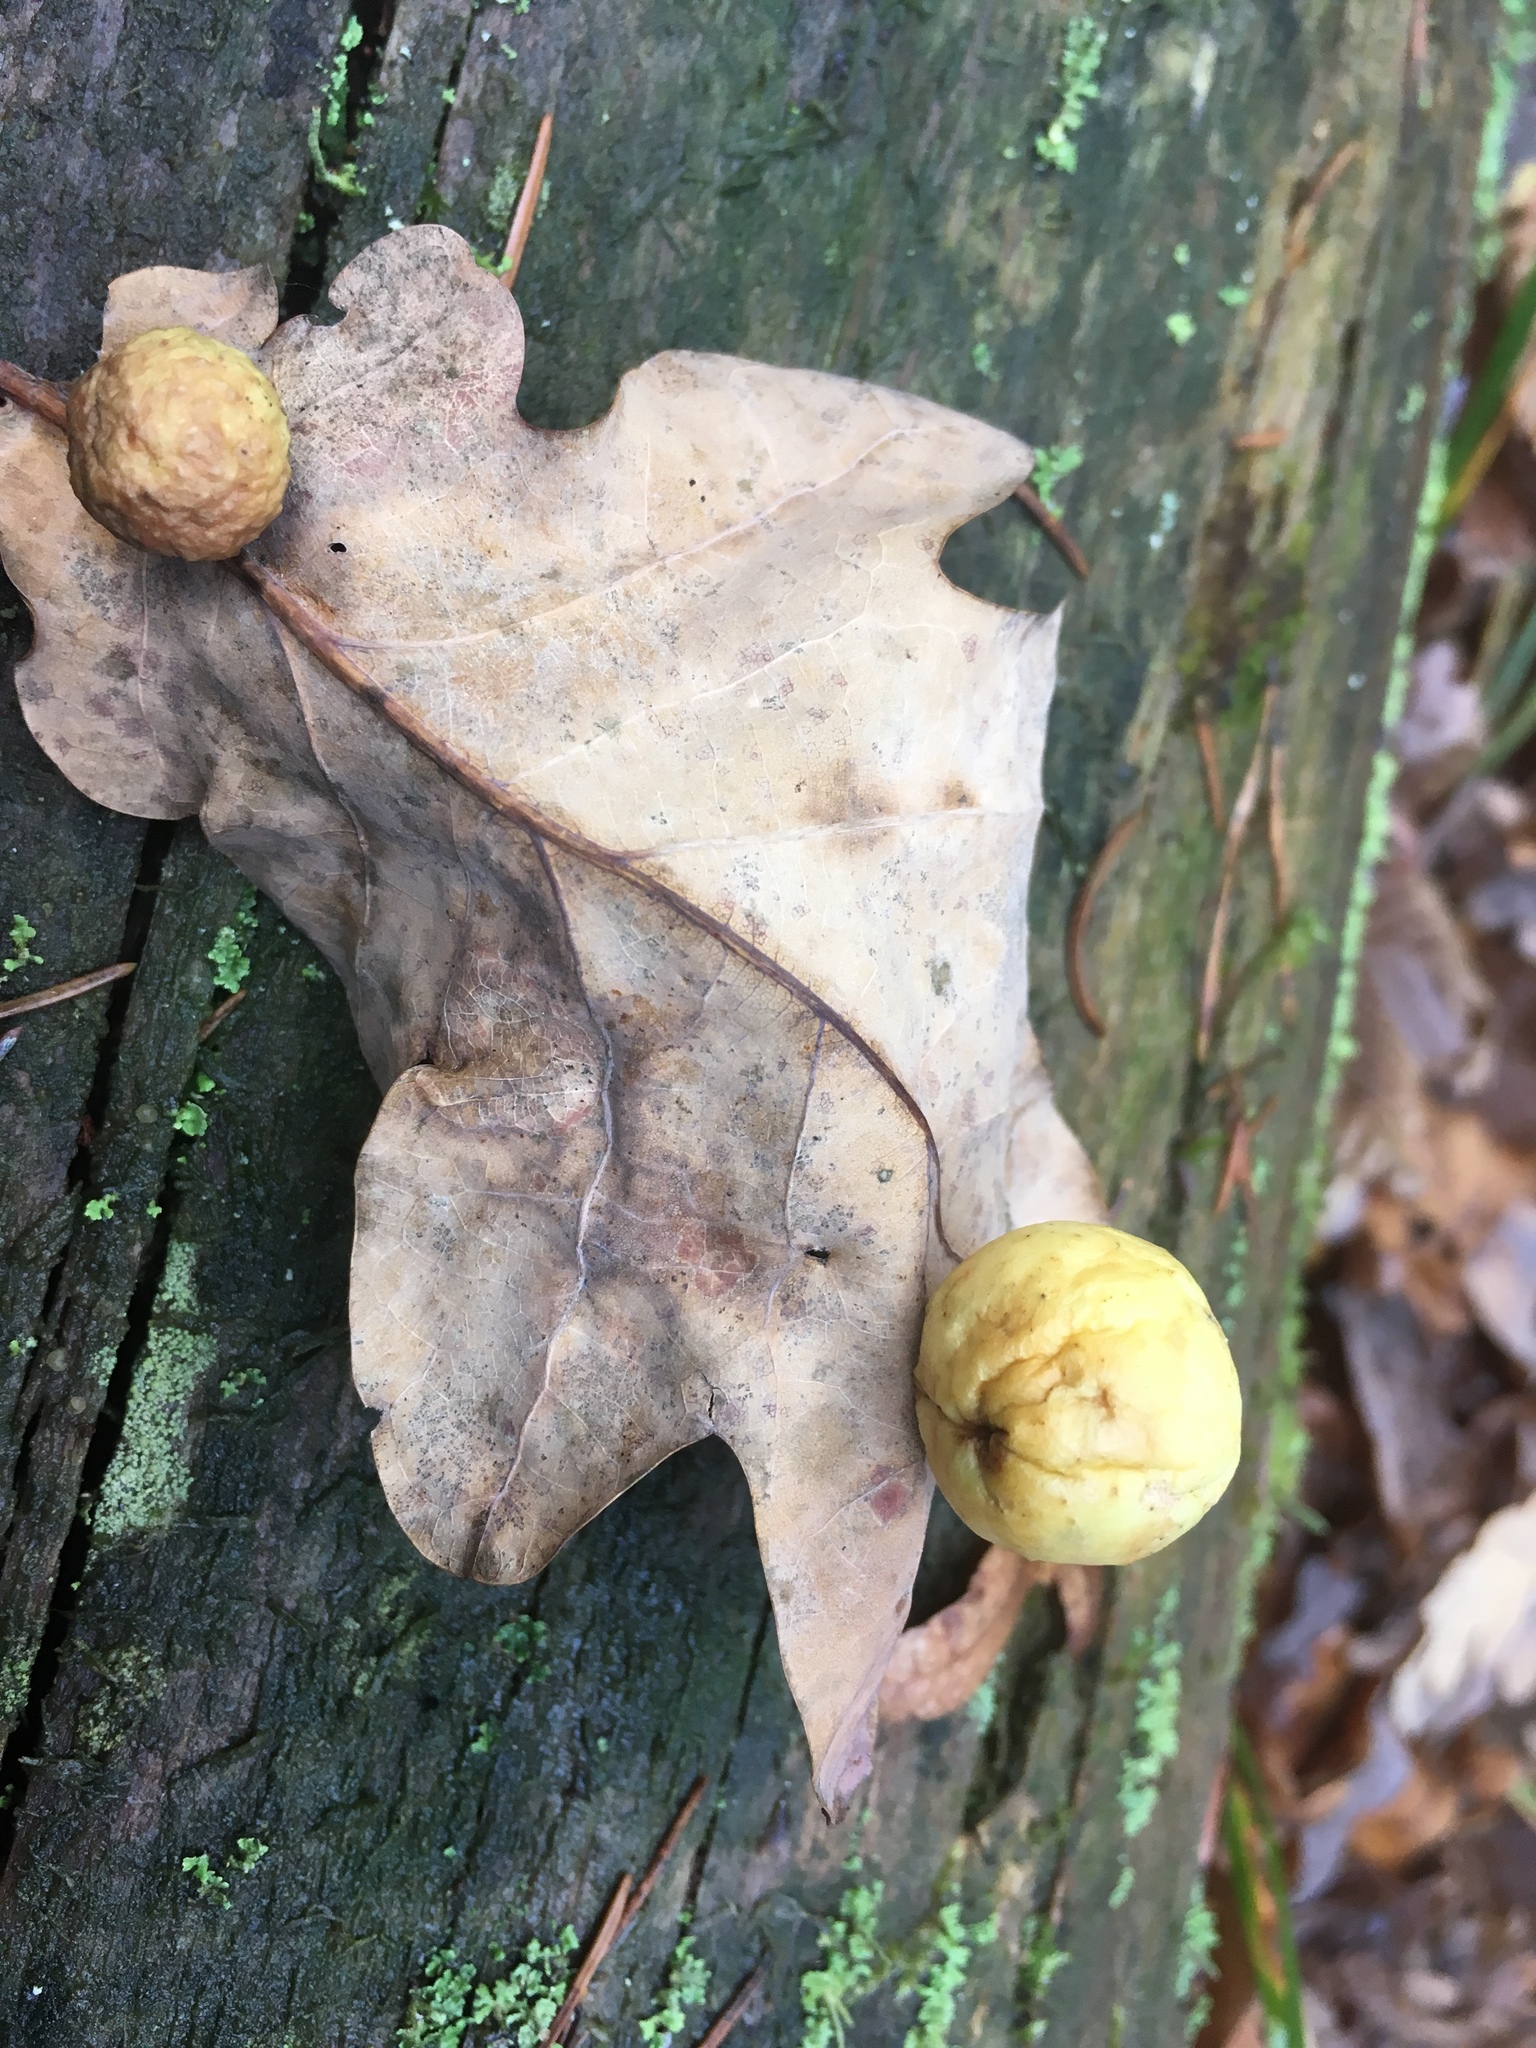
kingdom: Animalia
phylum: Arthropoda
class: Insecta
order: Hymenoptera
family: Cynipidae
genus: Cynips
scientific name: Cynips quercusfolii
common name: Cherry gall
